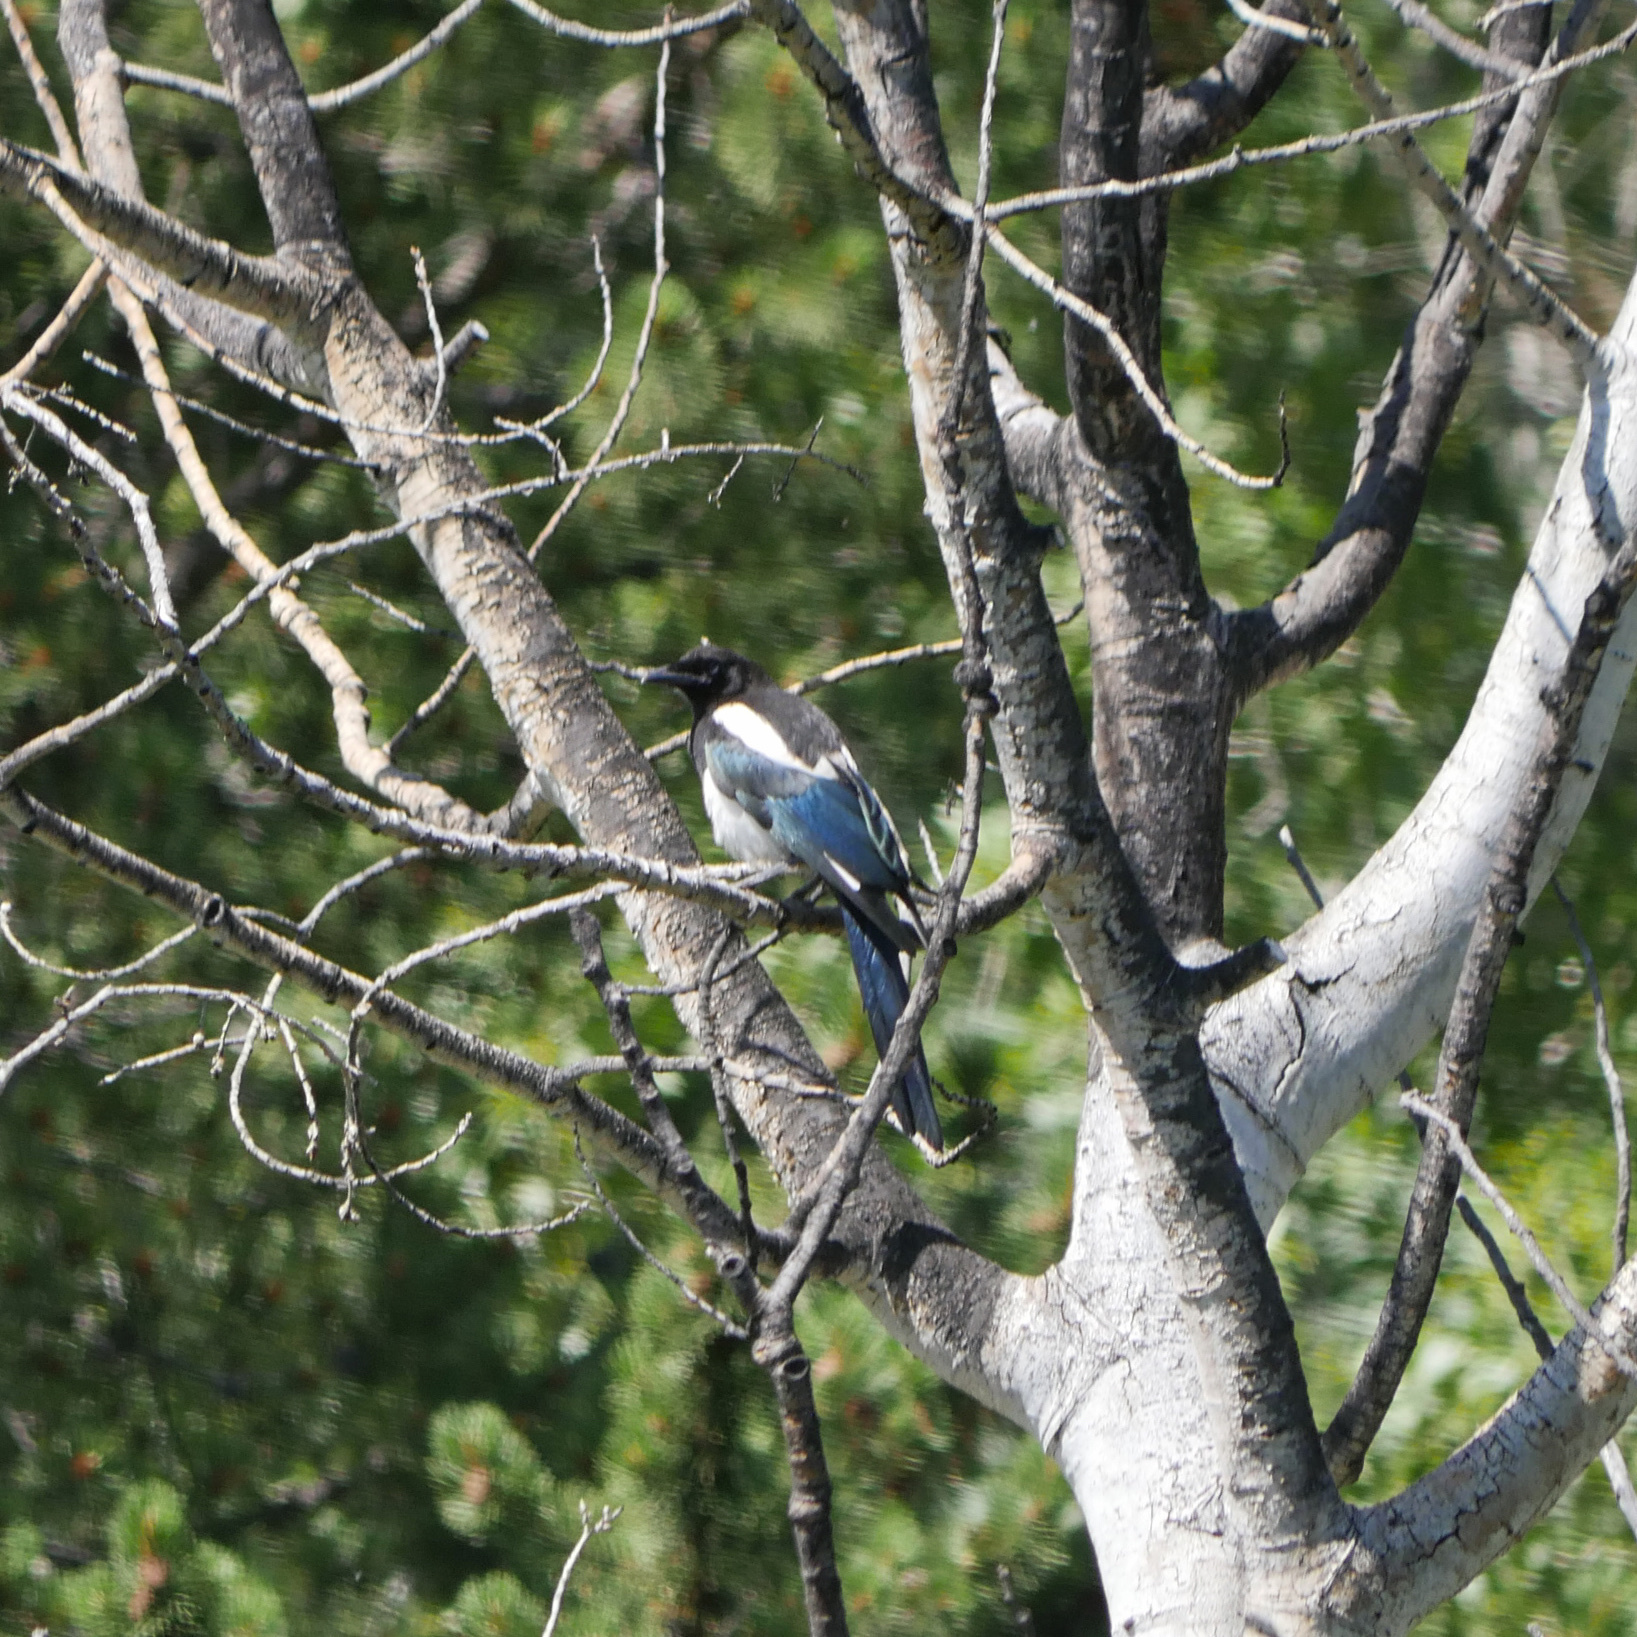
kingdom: Animalia
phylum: Chordata
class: Aves
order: Passeriformes
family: Corvidae
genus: Pica
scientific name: Pica hudsonia
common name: Black-billed magpie
